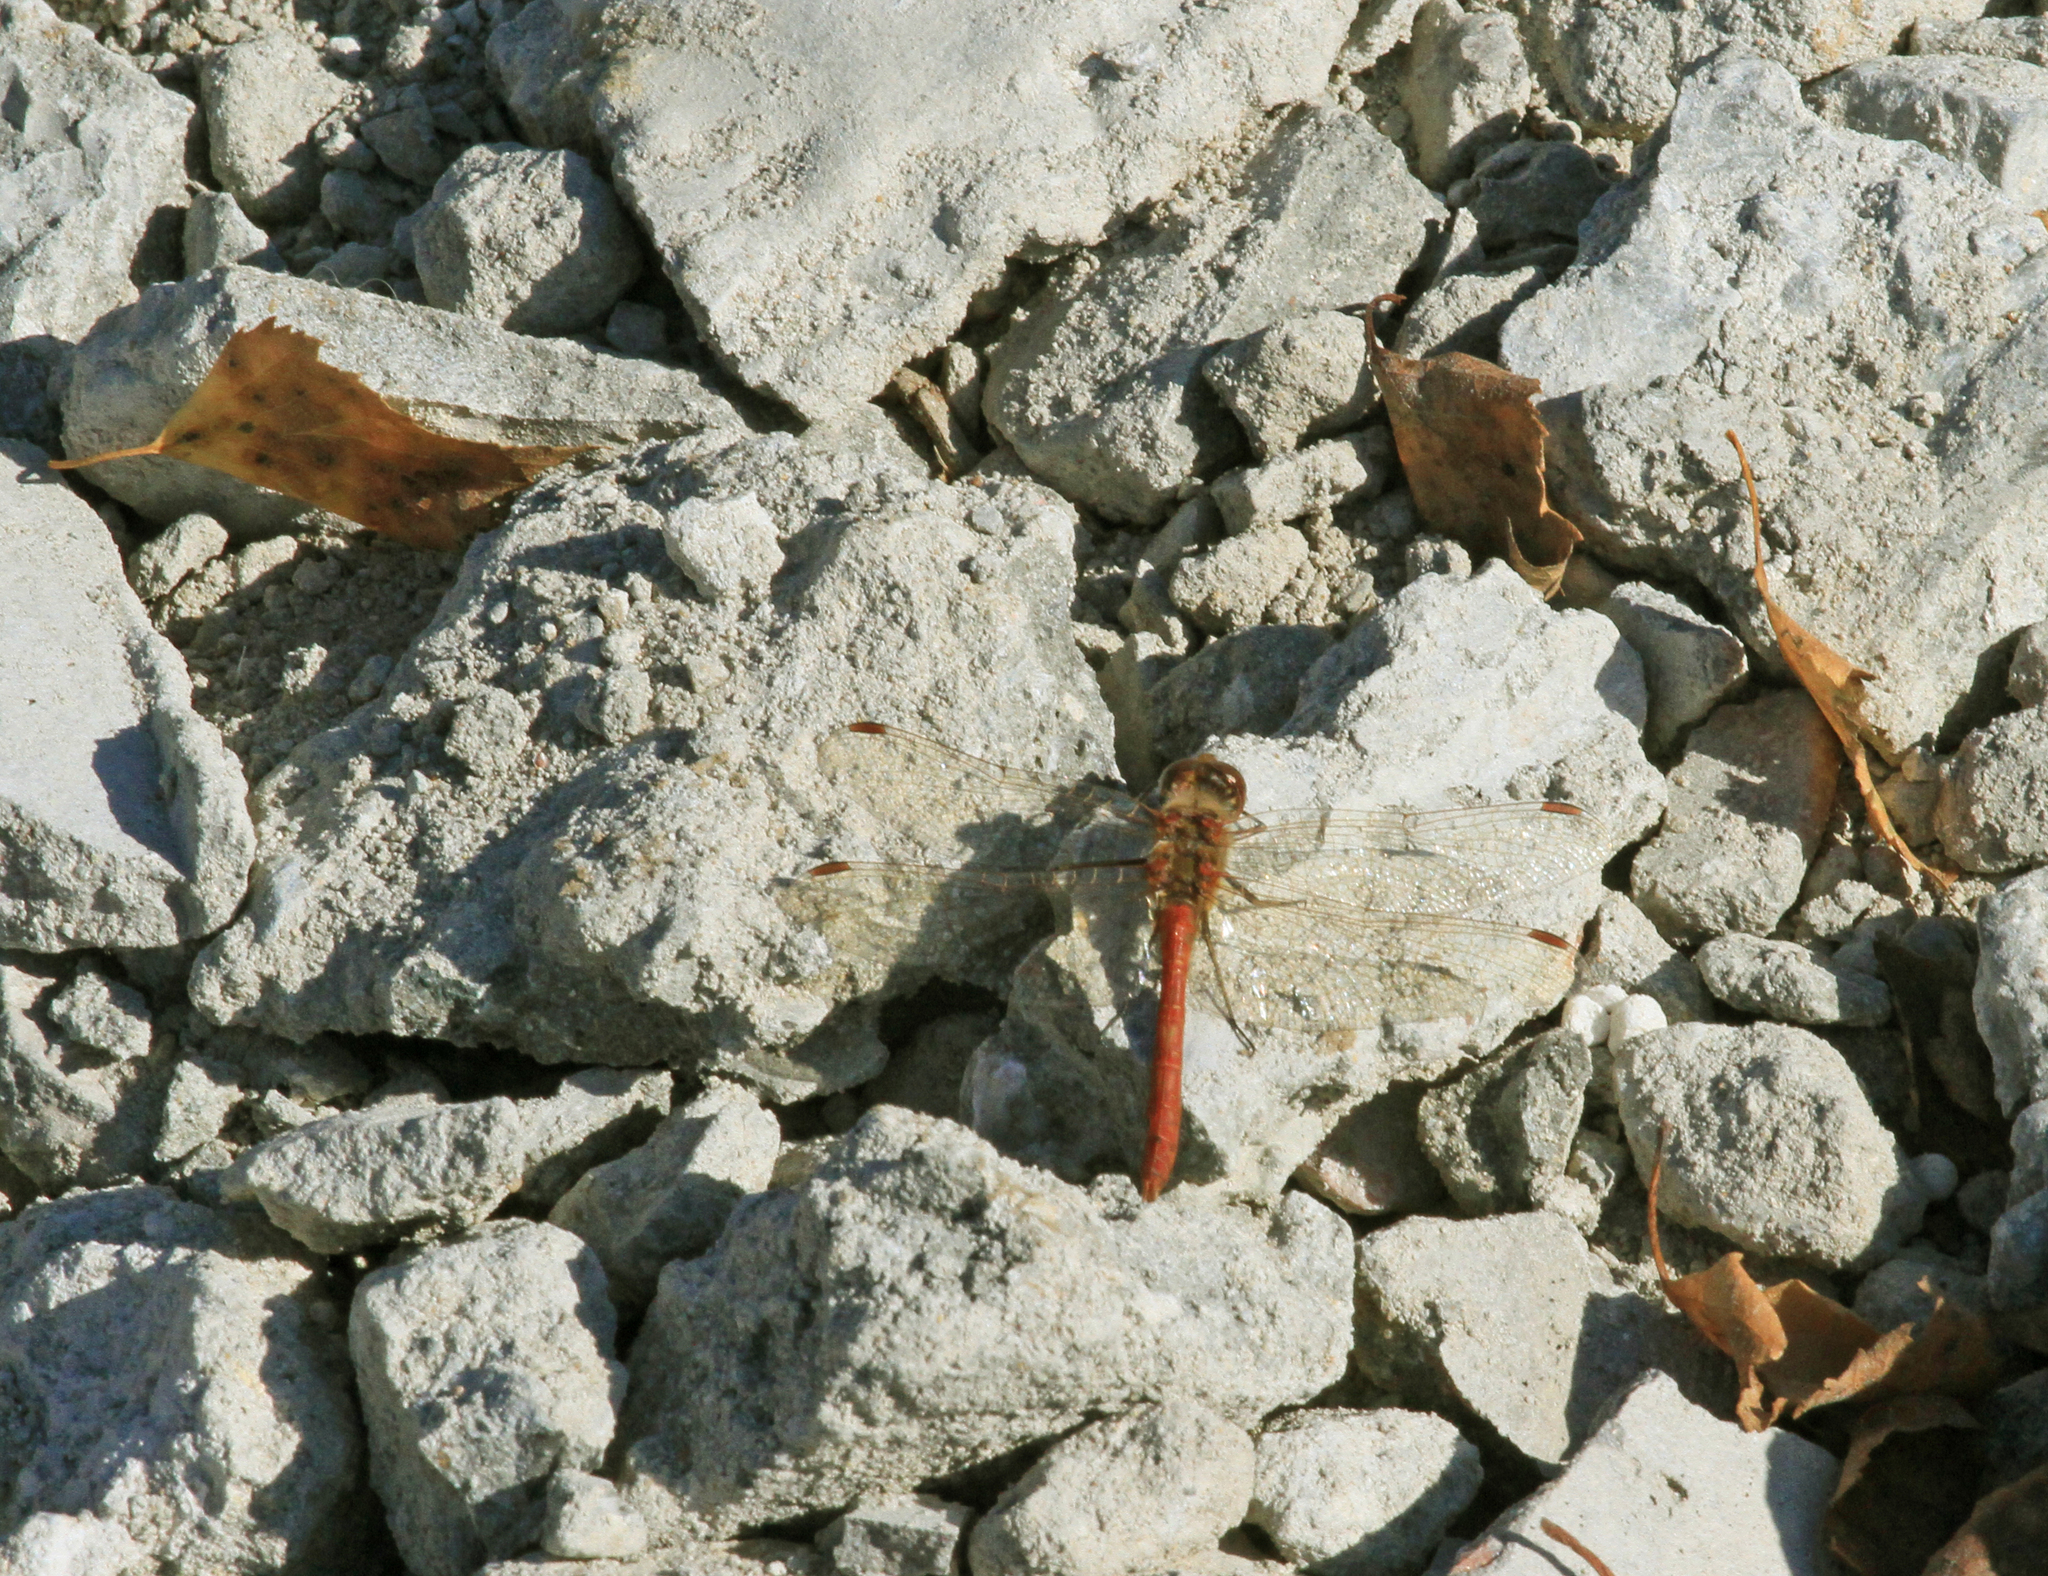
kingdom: Animalia
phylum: Arthropoda
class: Insecta
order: Odonata
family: Libellulidae
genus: Sympetrum
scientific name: Sympetrum vulgatum
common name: Vagrant darter
